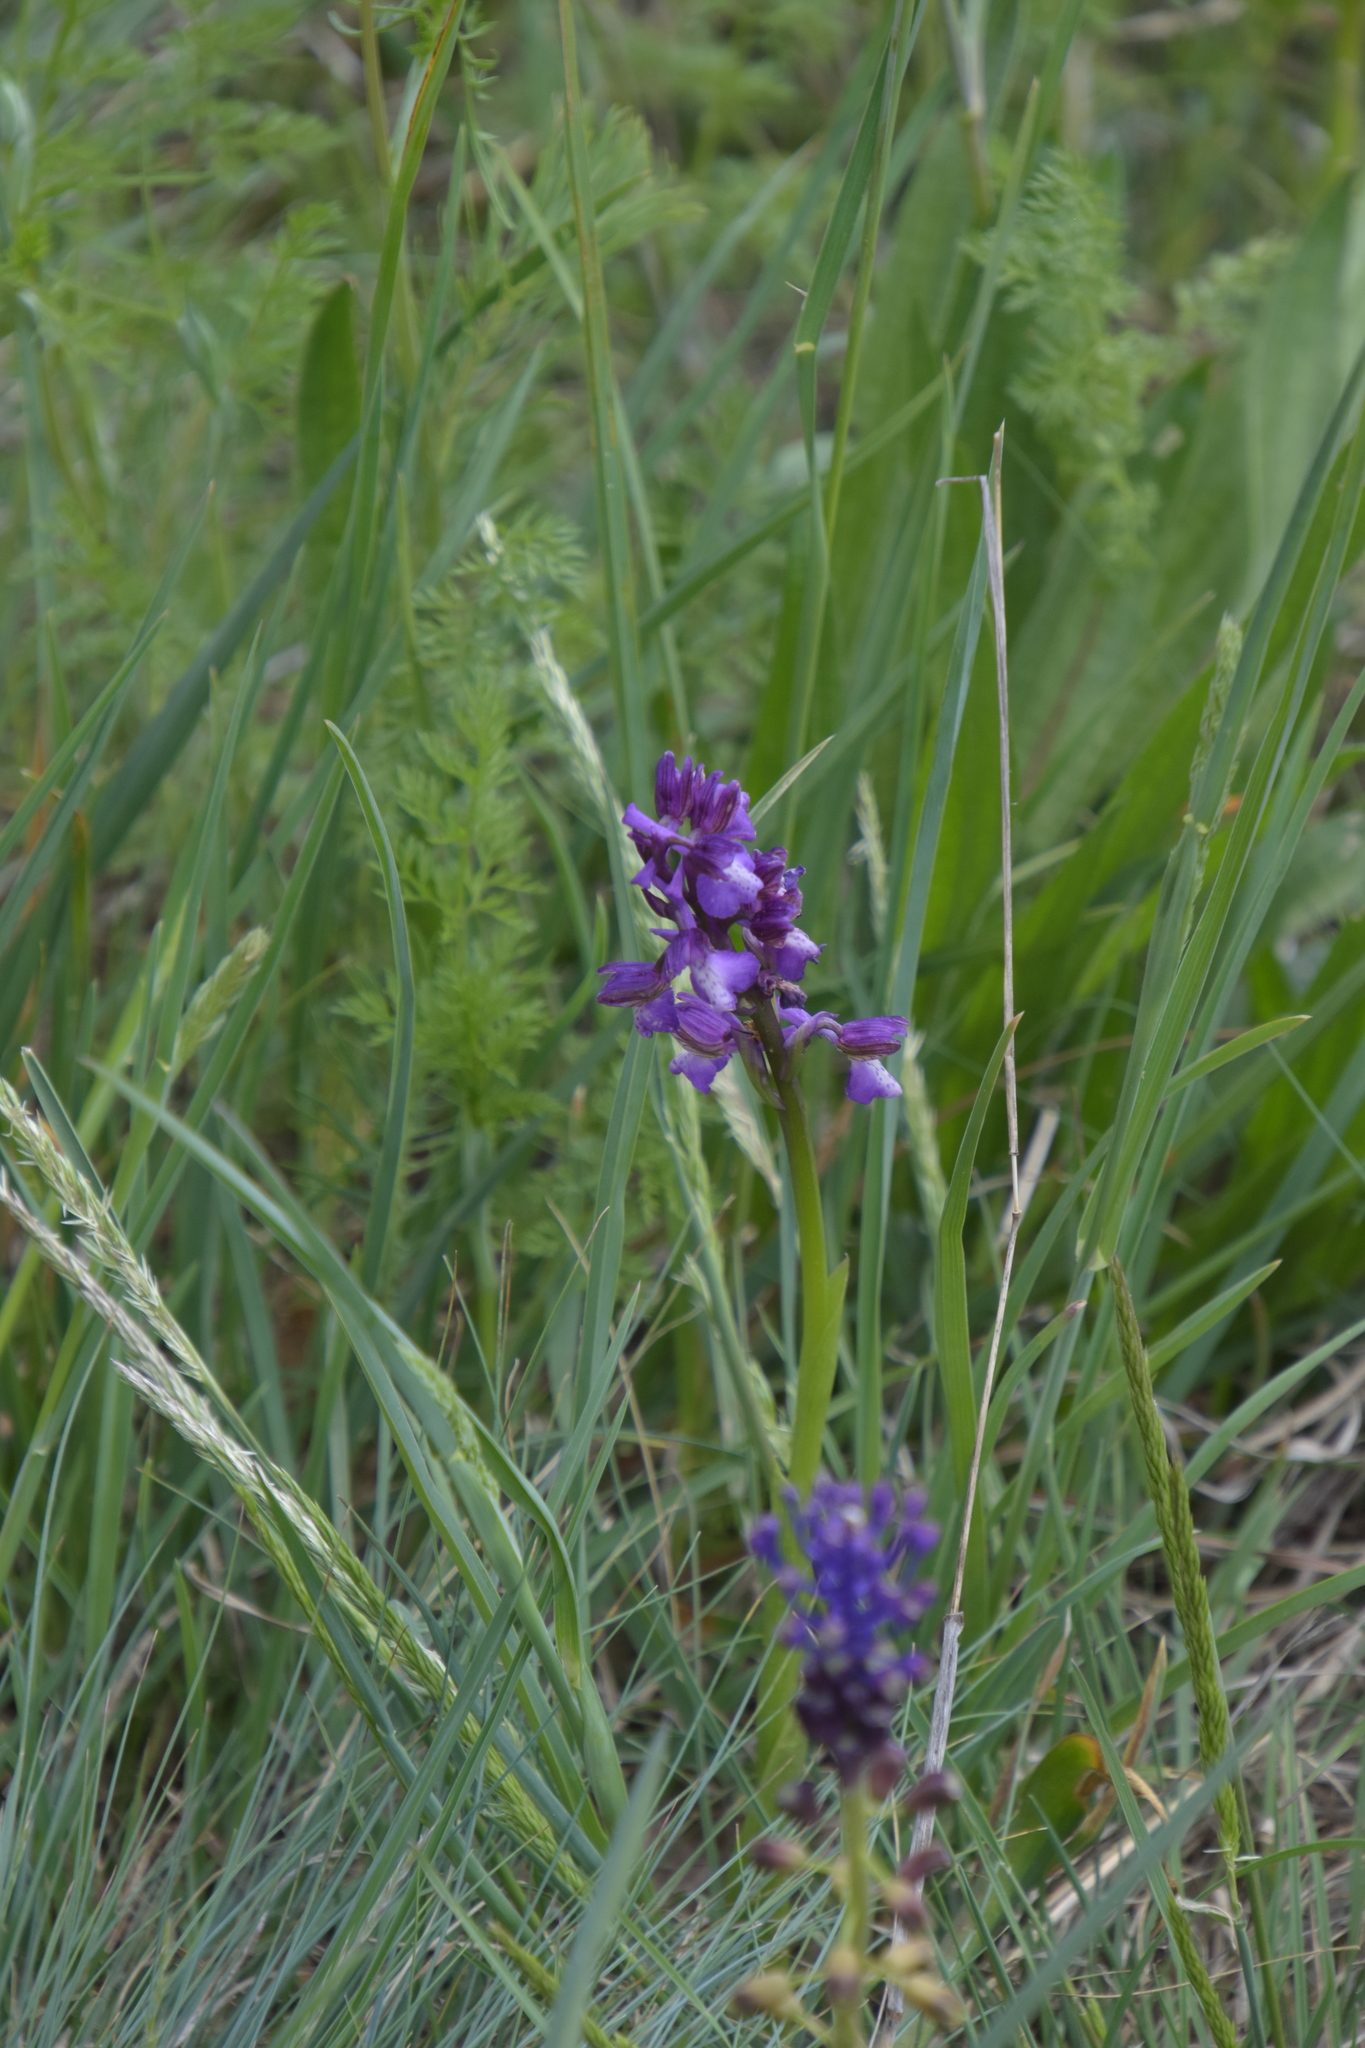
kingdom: Plantae
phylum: Tracheophyta
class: Liliopsida
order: Asparagales
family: Orchidaceae
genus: Anacamptis
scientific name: Anacamptis morio
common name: Green-winged orchid
